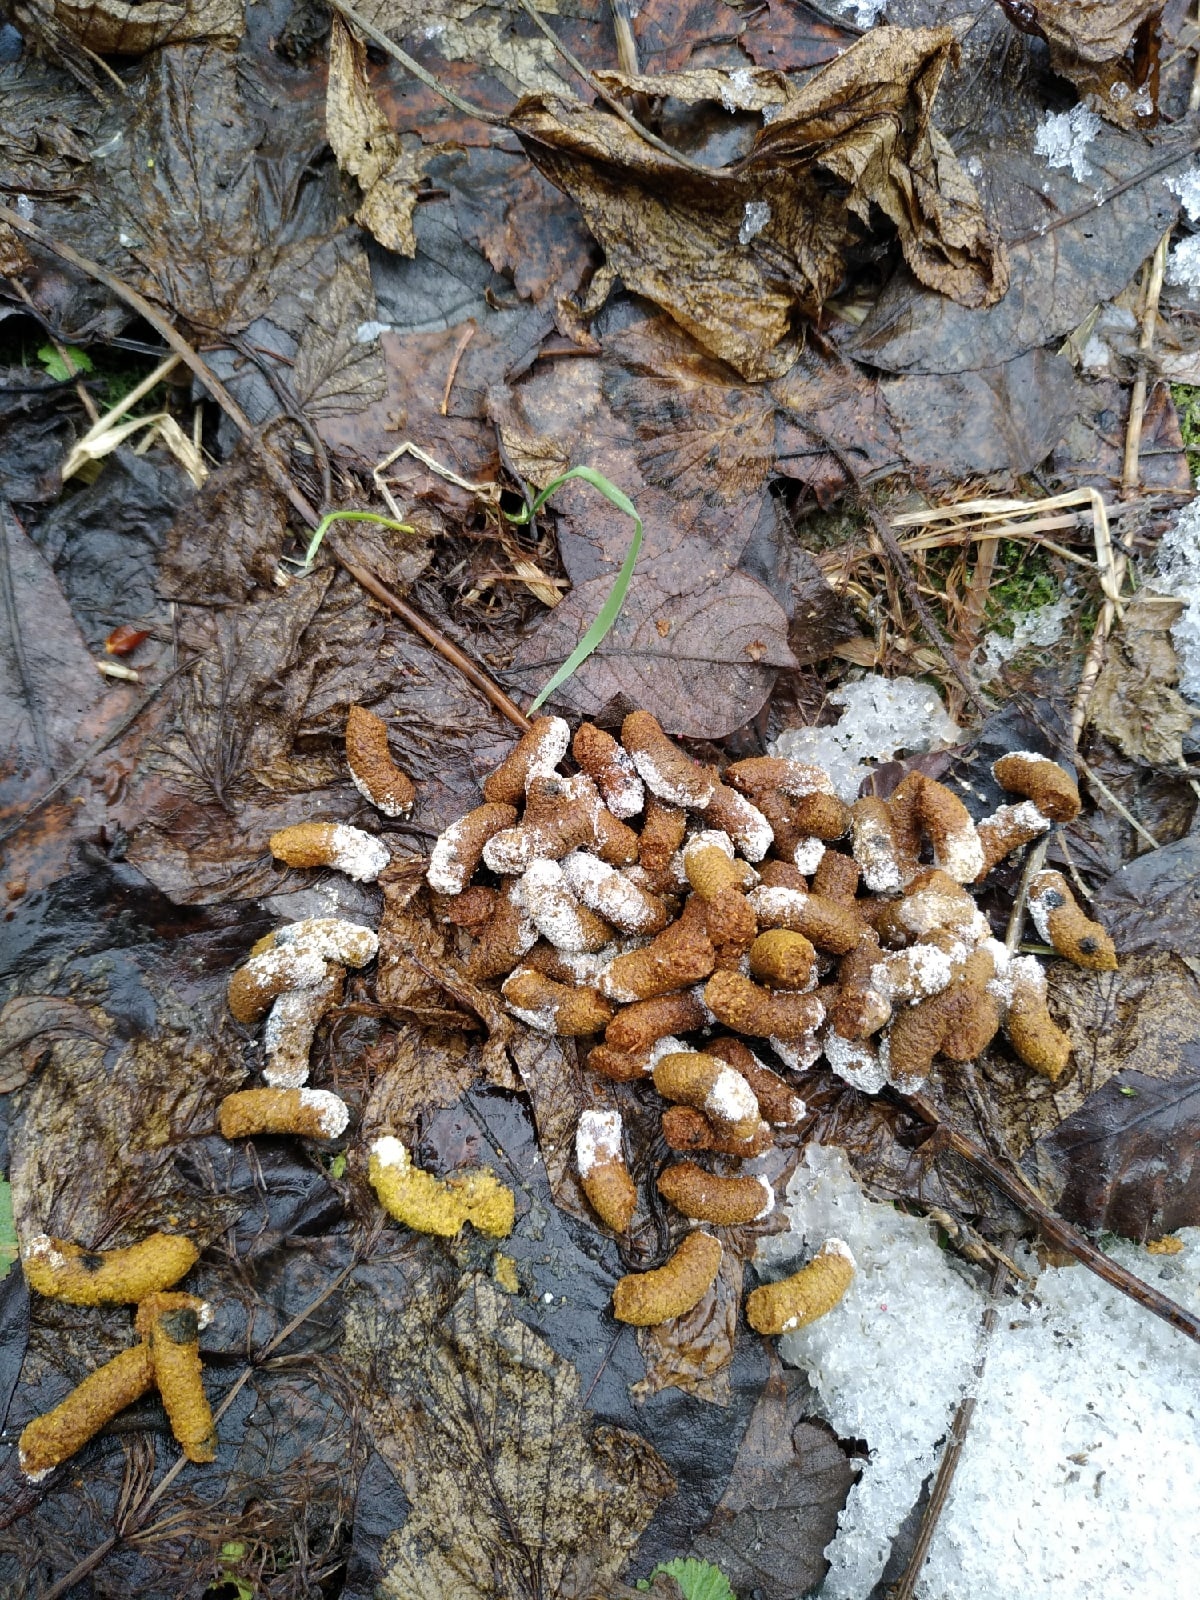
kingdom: Animalia
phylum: Chordata
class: Aves
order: Galliformes
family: Phasianidae
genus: Lyrurus
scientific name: Lyrurus tetrix
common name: Black grouse
